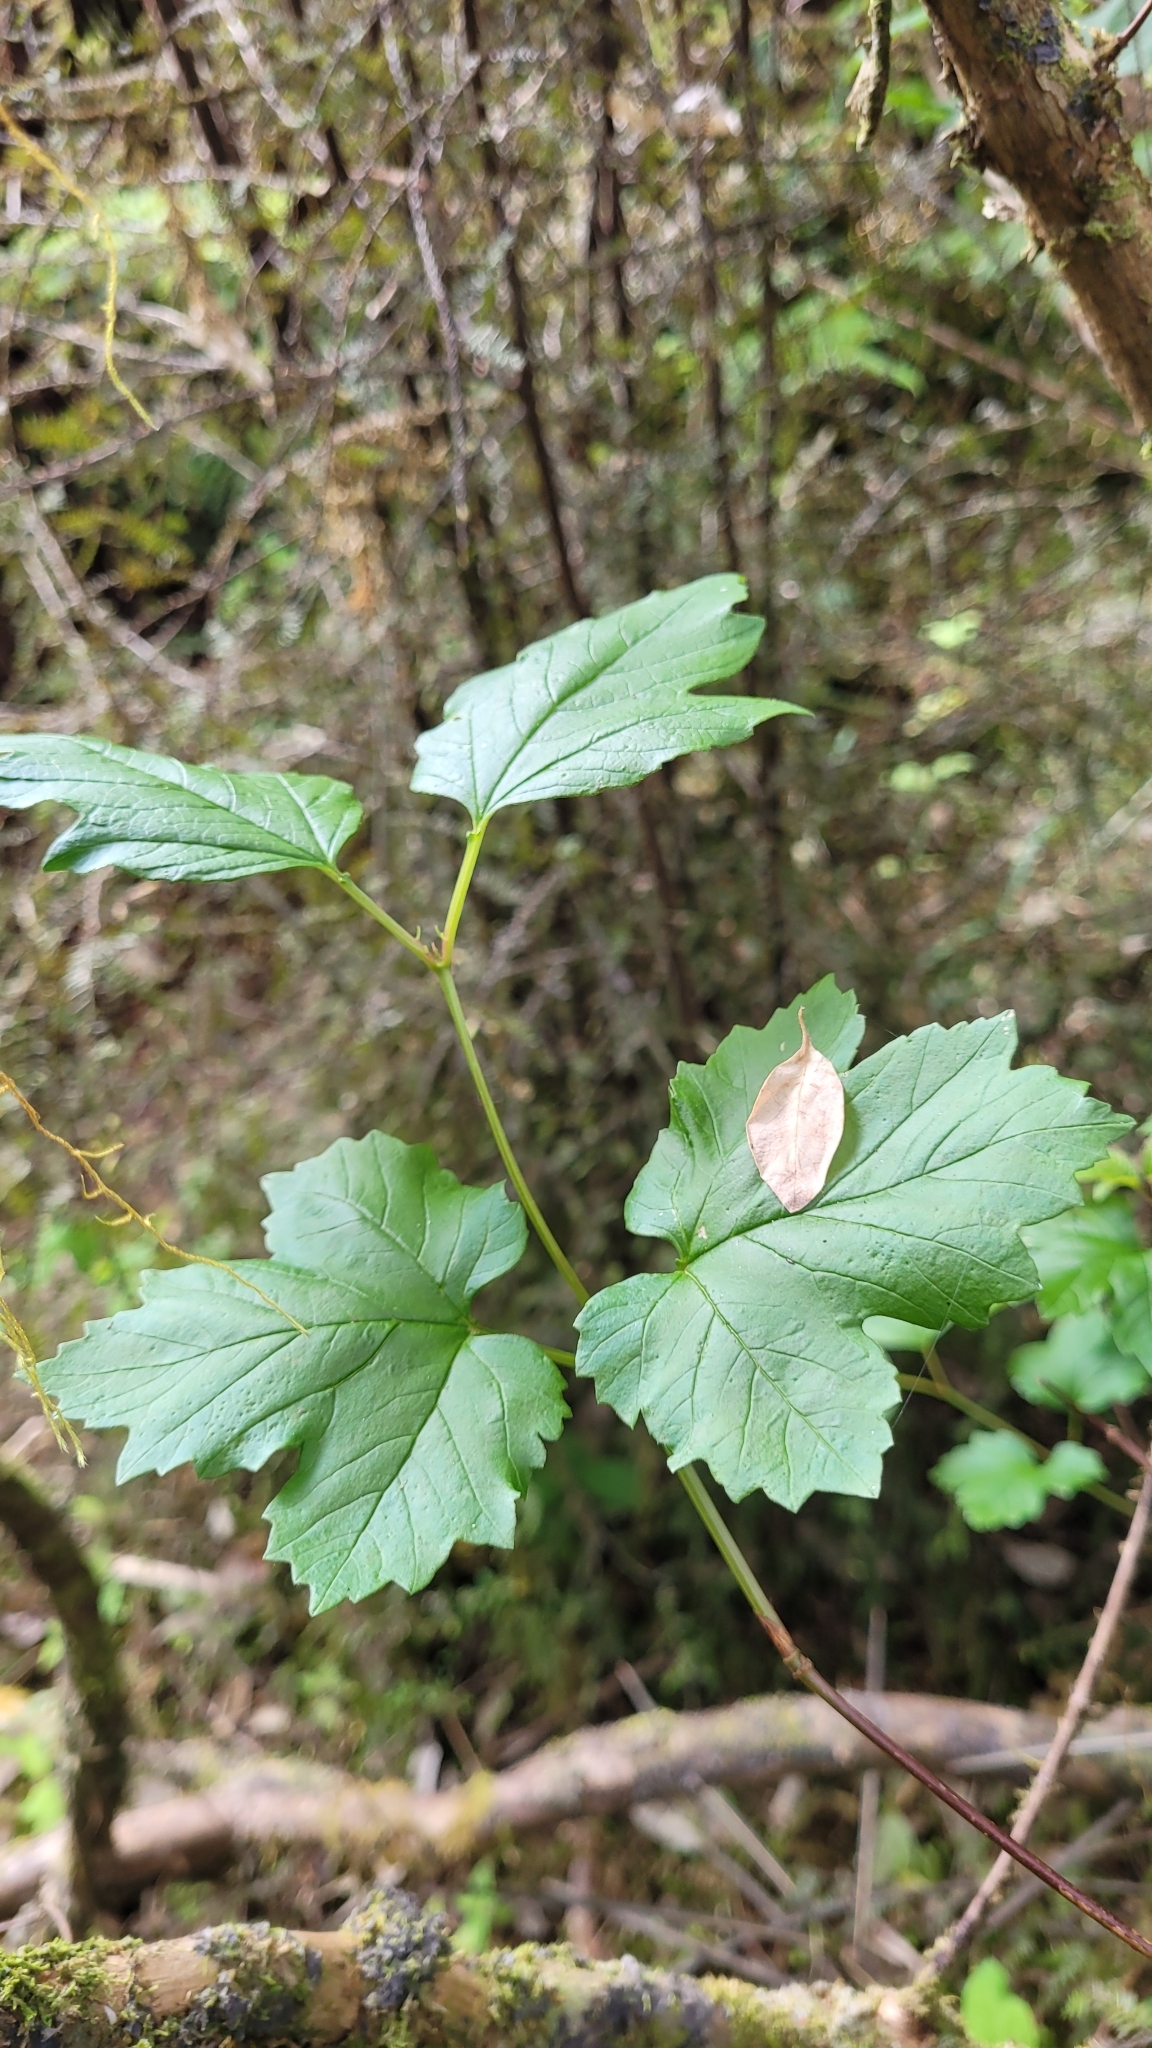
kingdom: Plantae
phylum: Tracheophyta
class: Magnoliopsida
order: Sapindales
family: Sapindaceae
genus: Acer
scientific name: Acer pseudoplatanus
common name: Sycamore
